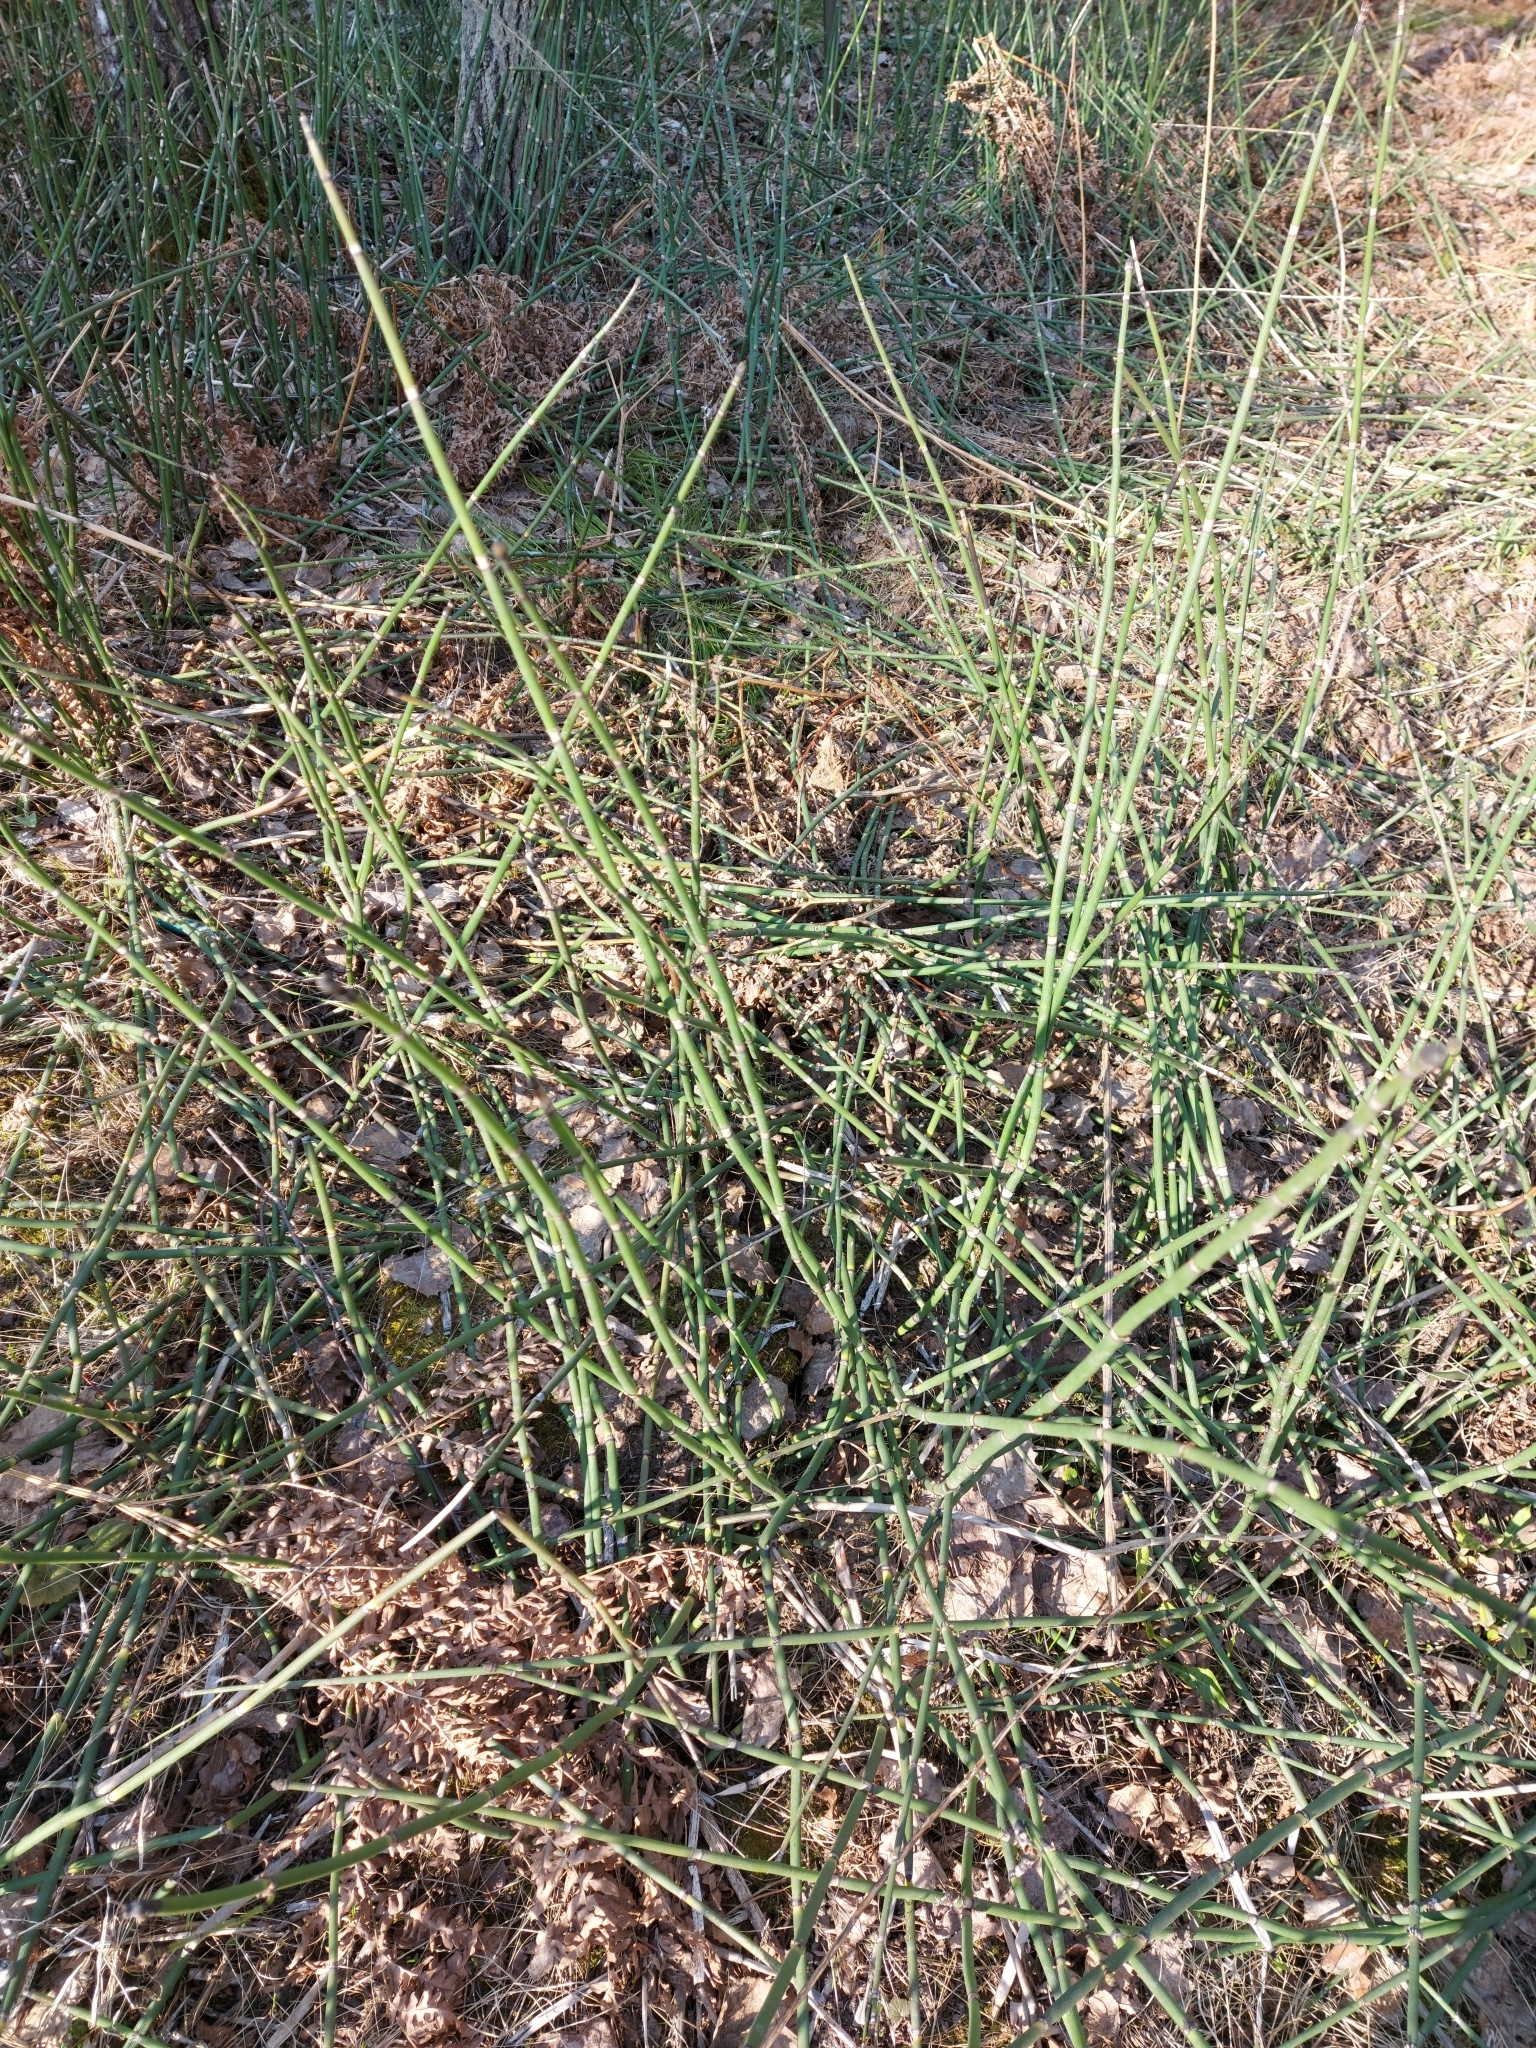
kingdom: Plantae
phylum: Tracheophyta
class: Polypodiopsida
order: Equisetales
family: Equisetaceae
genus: Equisetum
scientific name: Equisetum hyemale
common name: Rough horsetail
